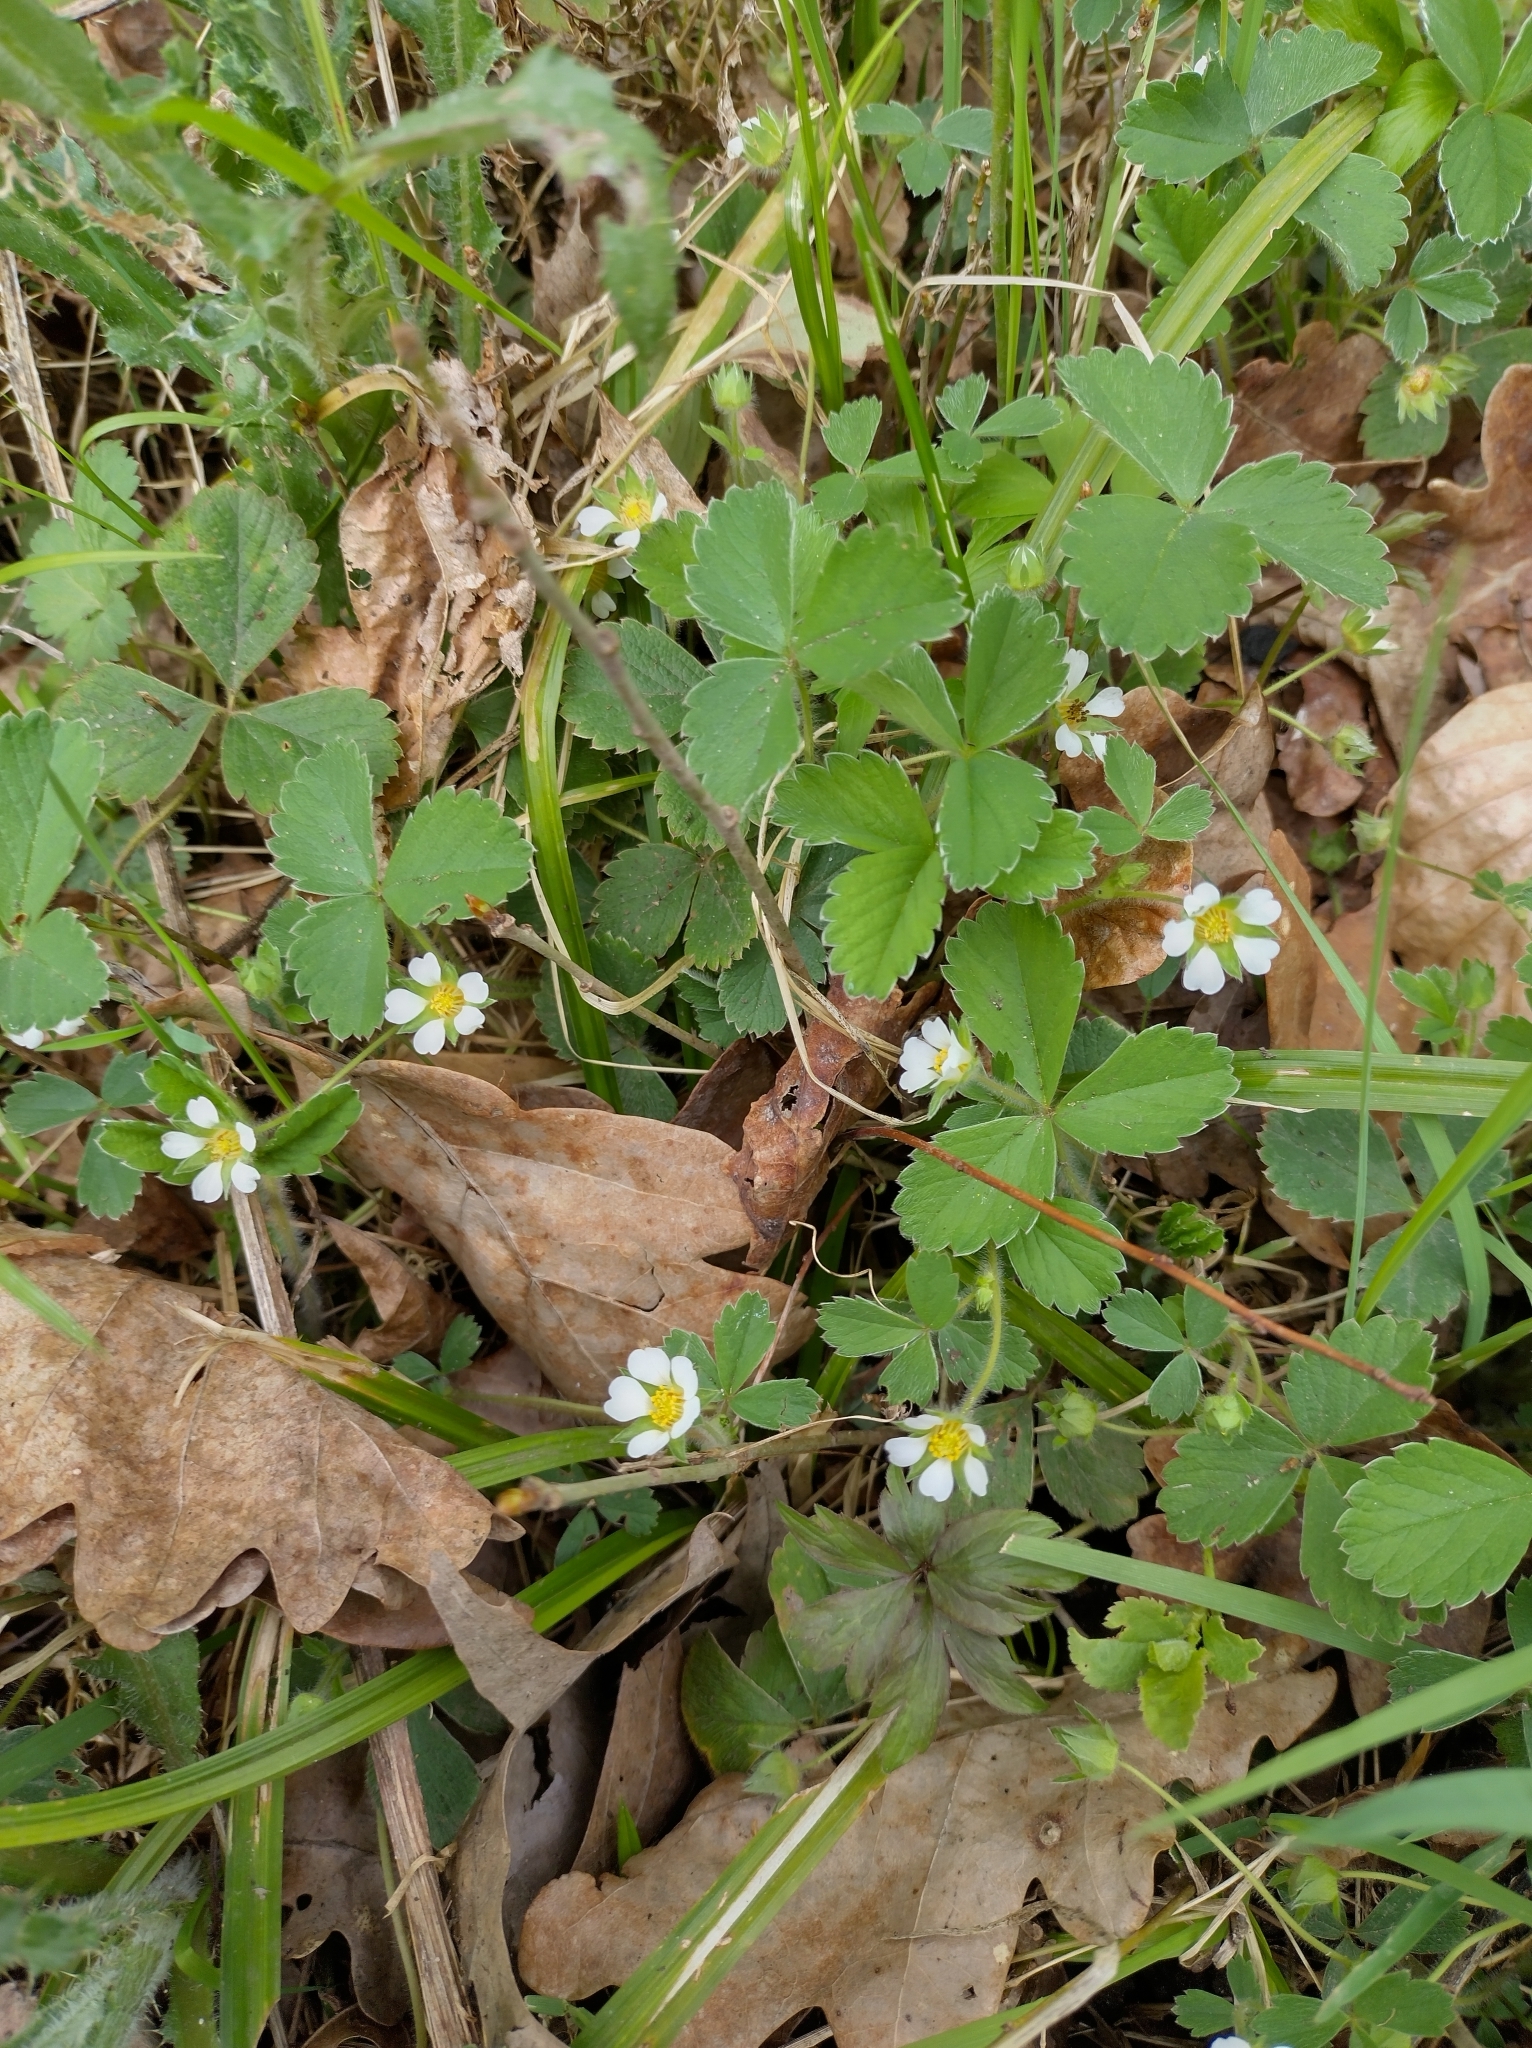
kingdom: Plantae
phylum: Tracheophyta
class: Magnoliopsida
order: Rosales
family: Rosaceae
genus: Potentilla
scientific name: Potentilla sterilis
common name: Barren strawberry
